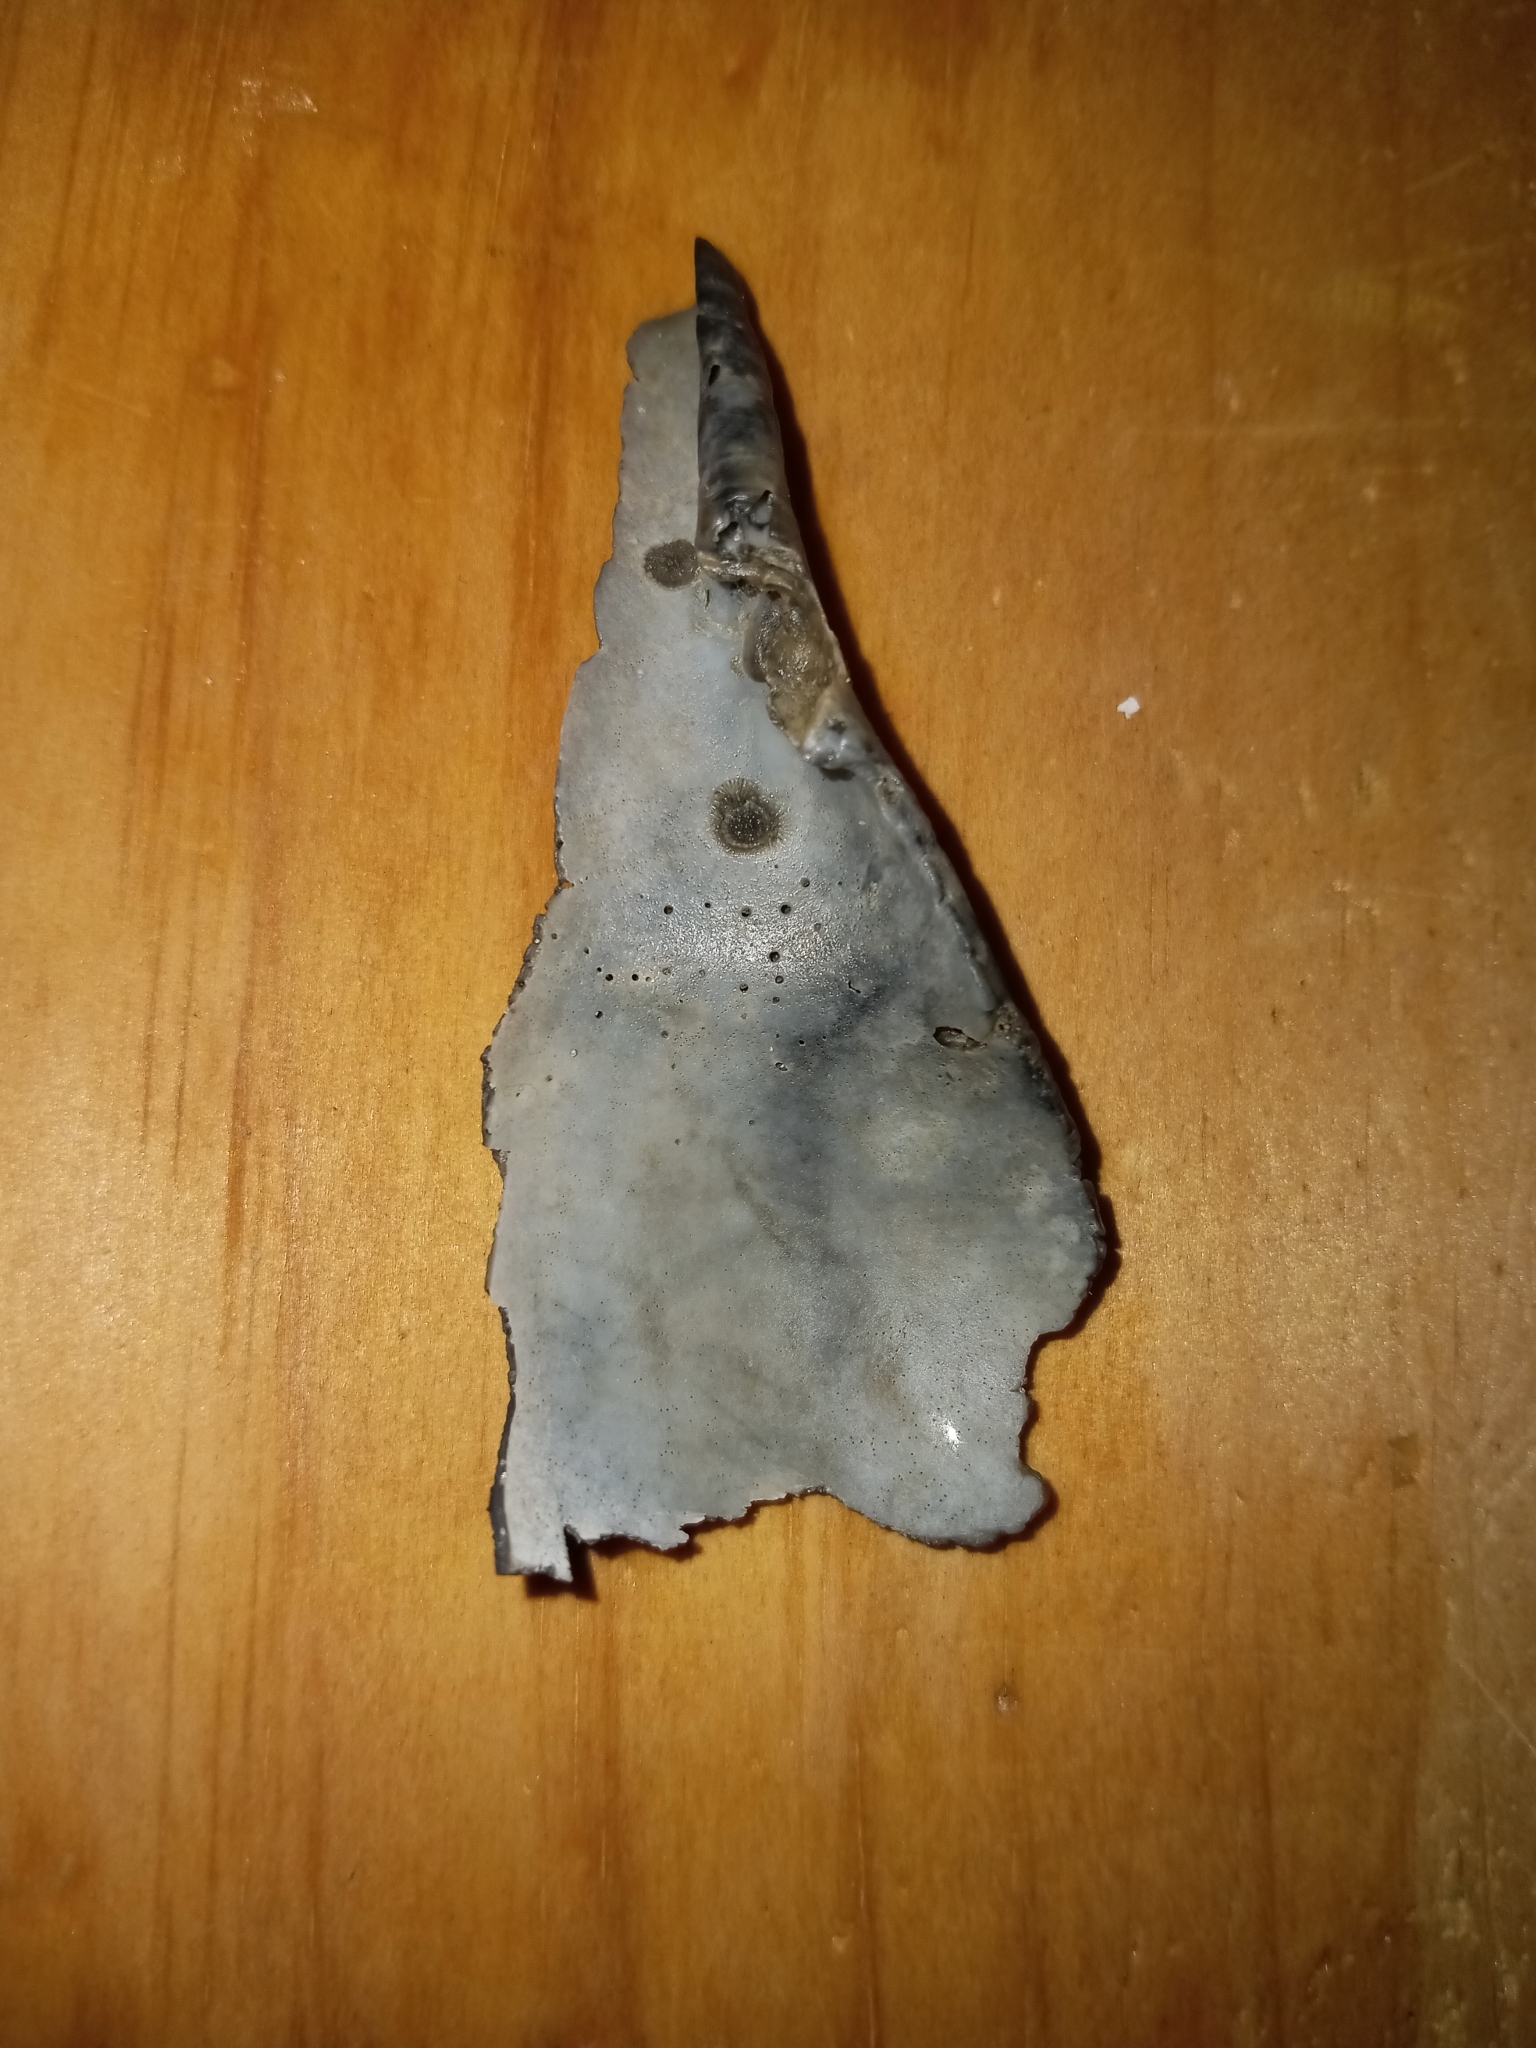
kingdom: Animalia
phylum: Mollusca
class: Gastropoda
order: Neogastropoda
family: Busyconidae
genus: Busycon
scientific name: Busycon carica
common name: Knobbed whelk
